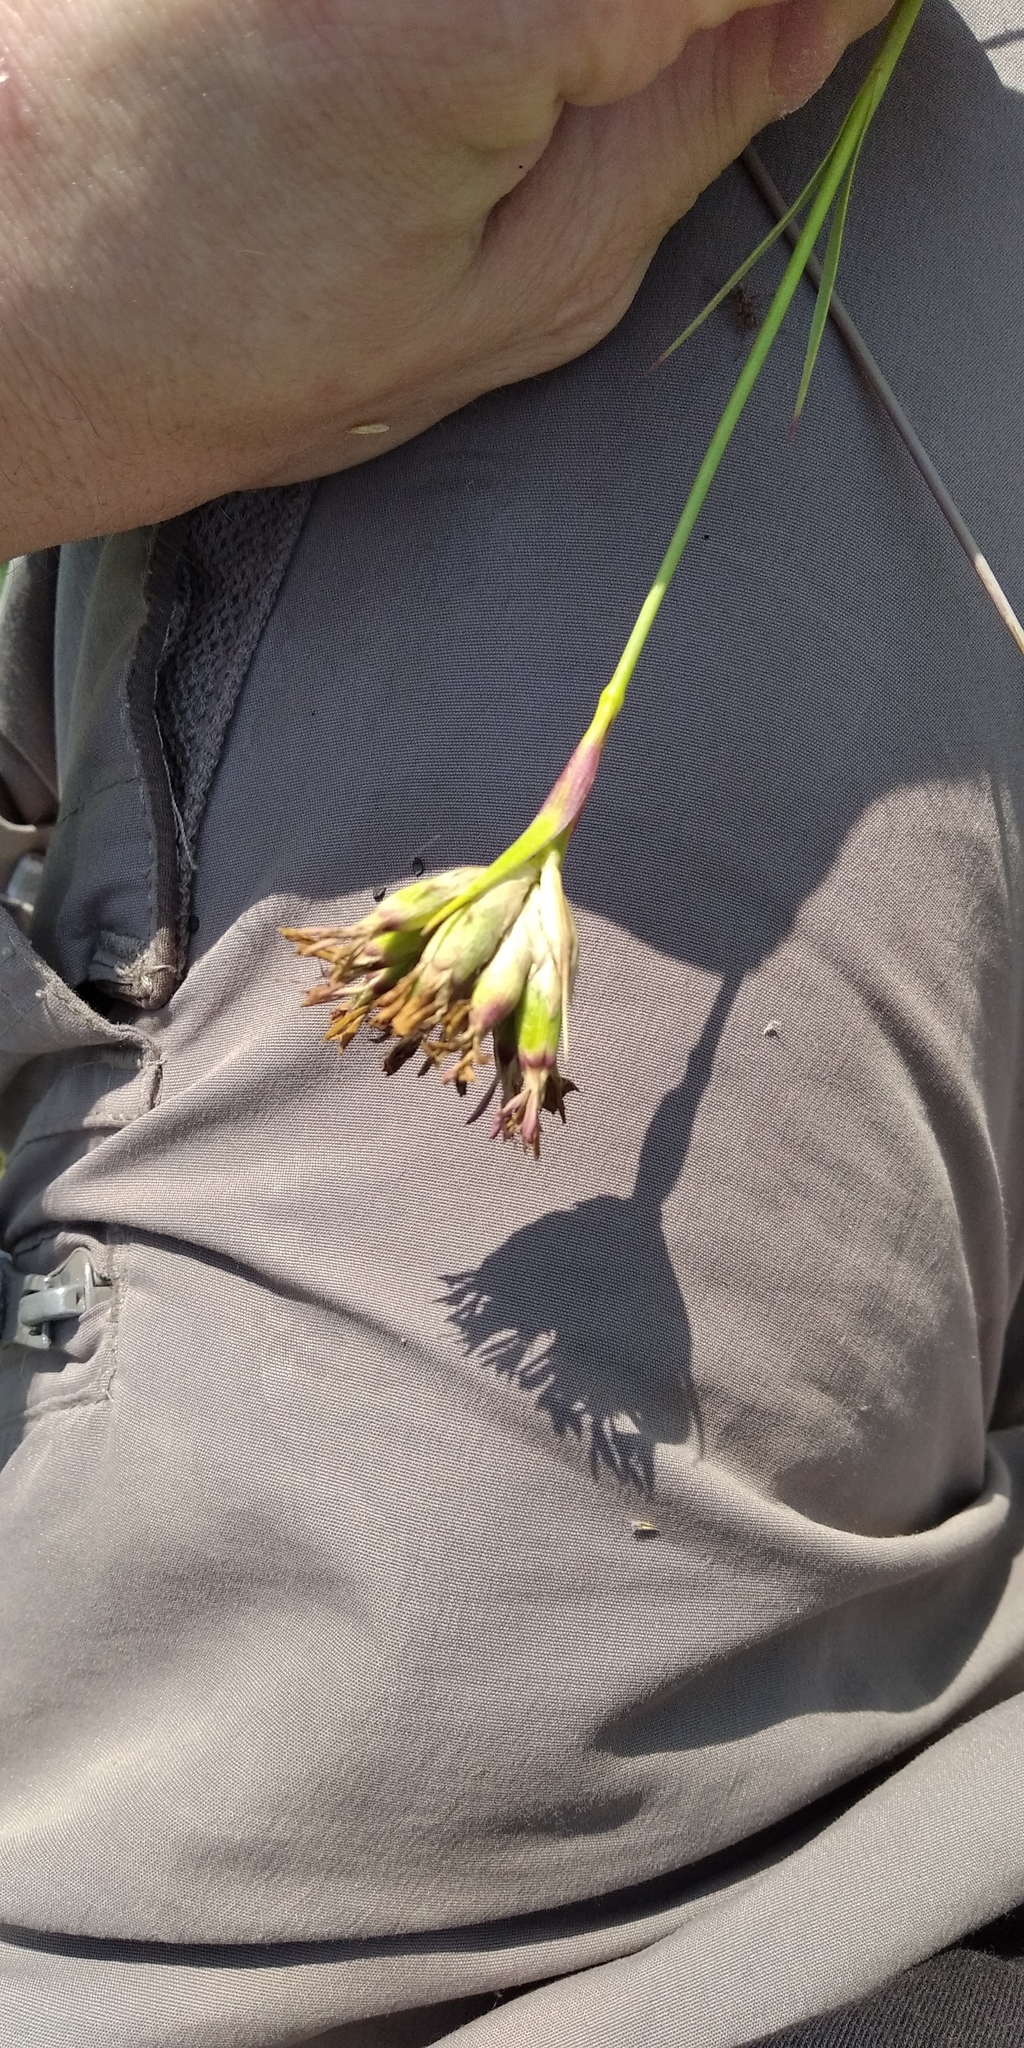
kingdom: Plantae
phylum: Tracheophyta
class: Magnoliopsida
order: Caryophyllales
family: Caryophyllaceae
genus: Dianthus
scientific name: Dianthus membranaceus
